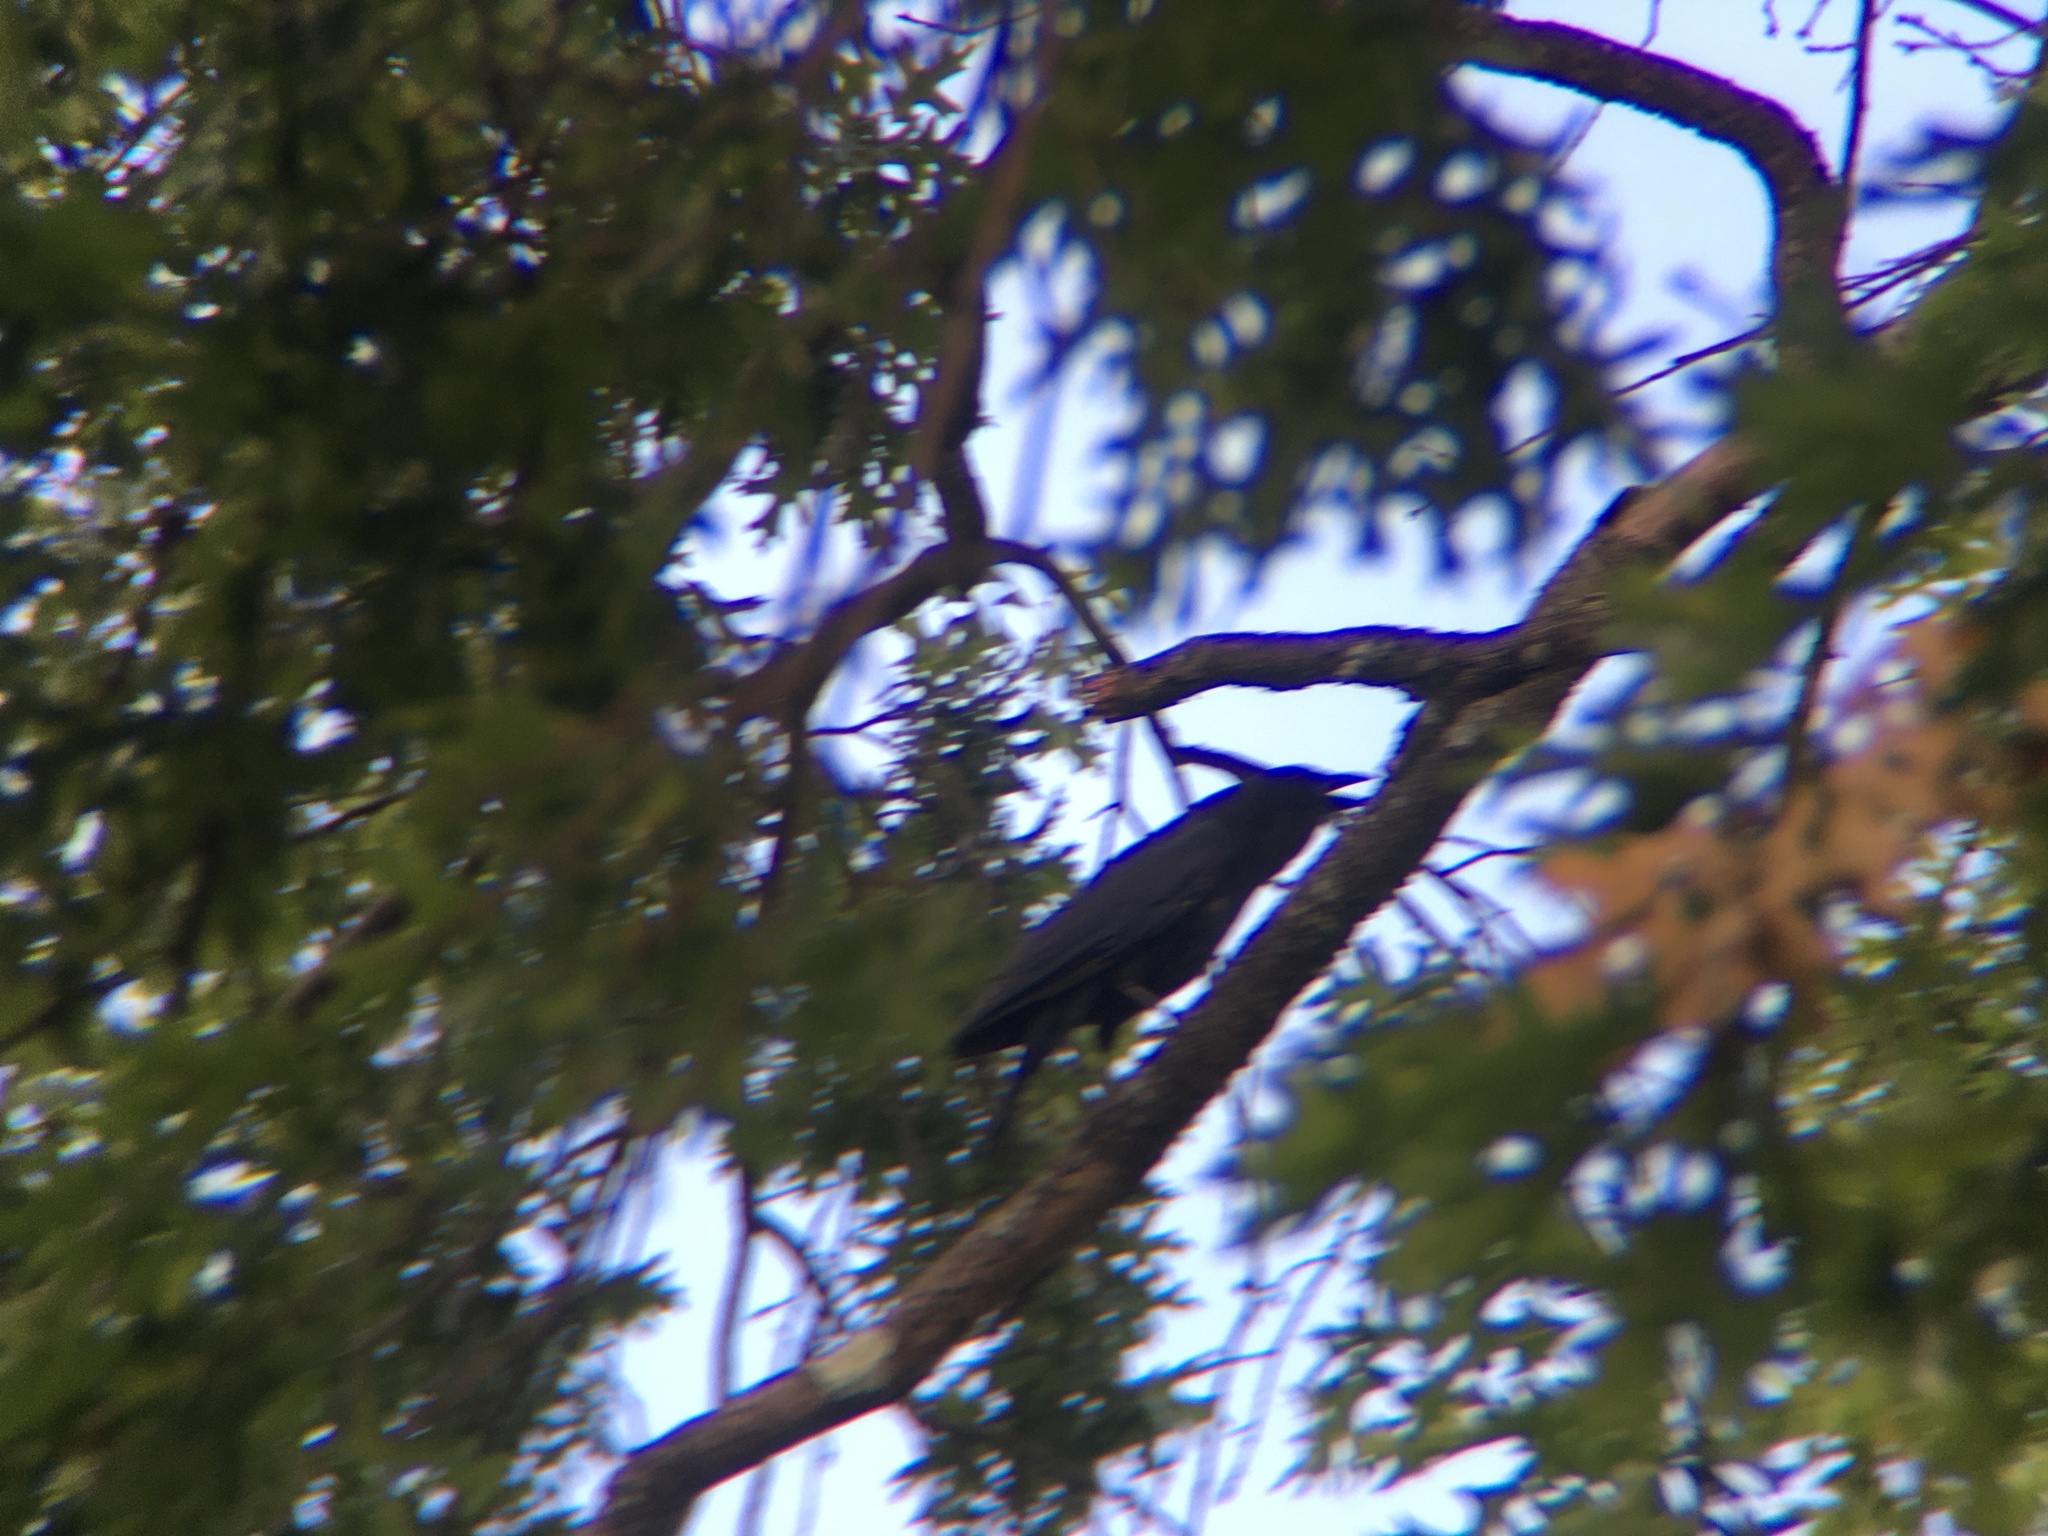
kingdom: Animalia
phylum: Chordata
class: Aves
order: Passeriformes
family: Corvidae
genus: Corvus
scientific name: Corvus brachyrhynchos
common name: American crow
